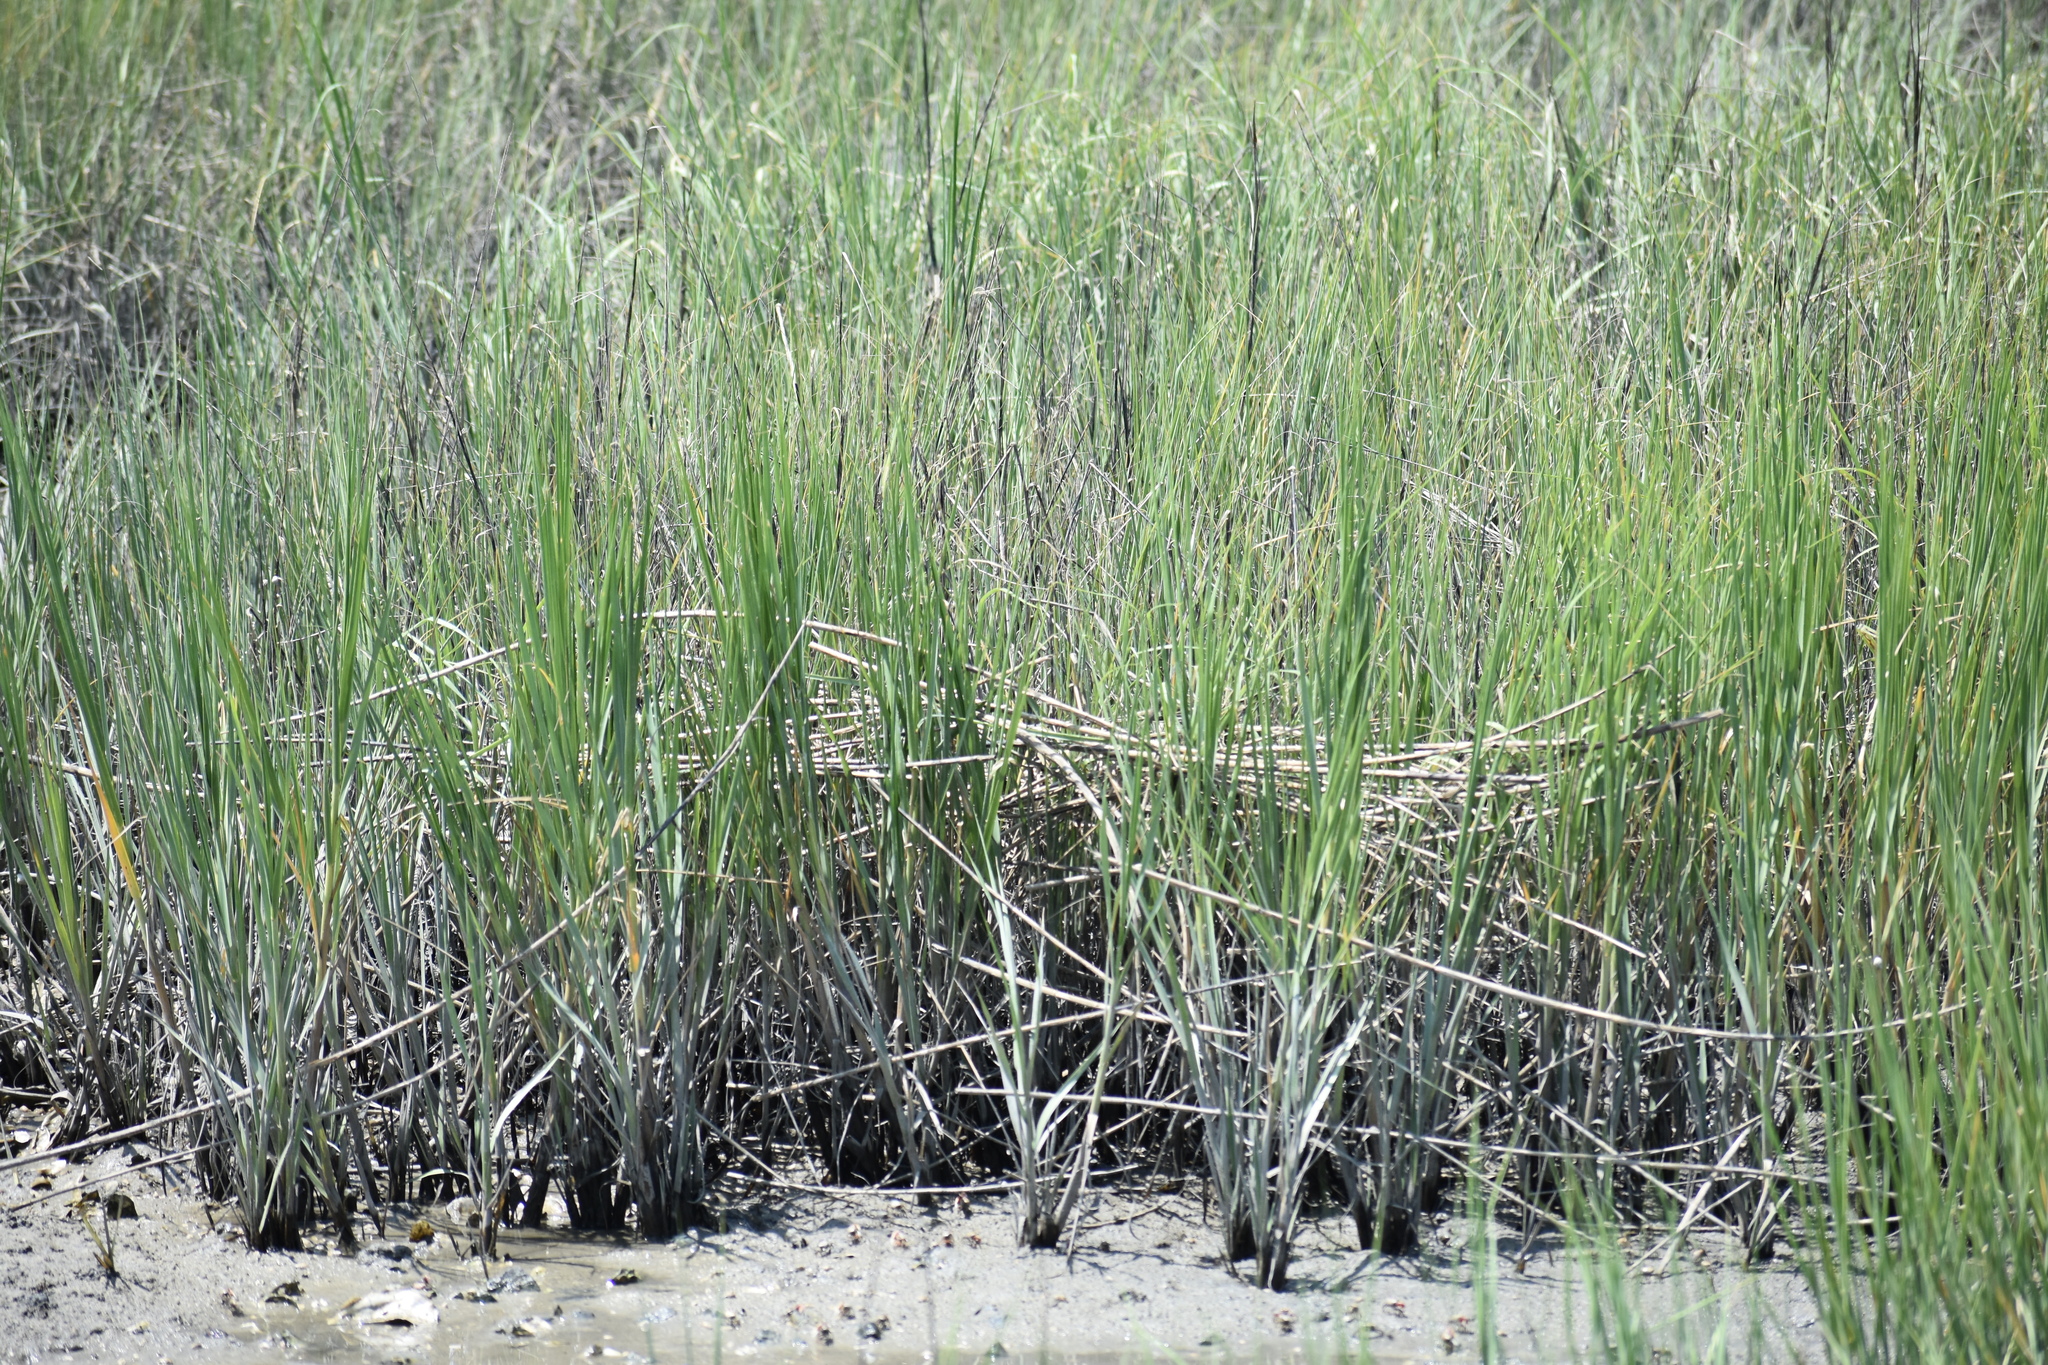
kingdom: Plantae
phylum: Tracheophyta
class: Liliopsida
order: Poales
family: Poaceae
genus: Sporobolus
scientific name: Sporobolus alterniflorus
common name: Atlantic cordgrass
